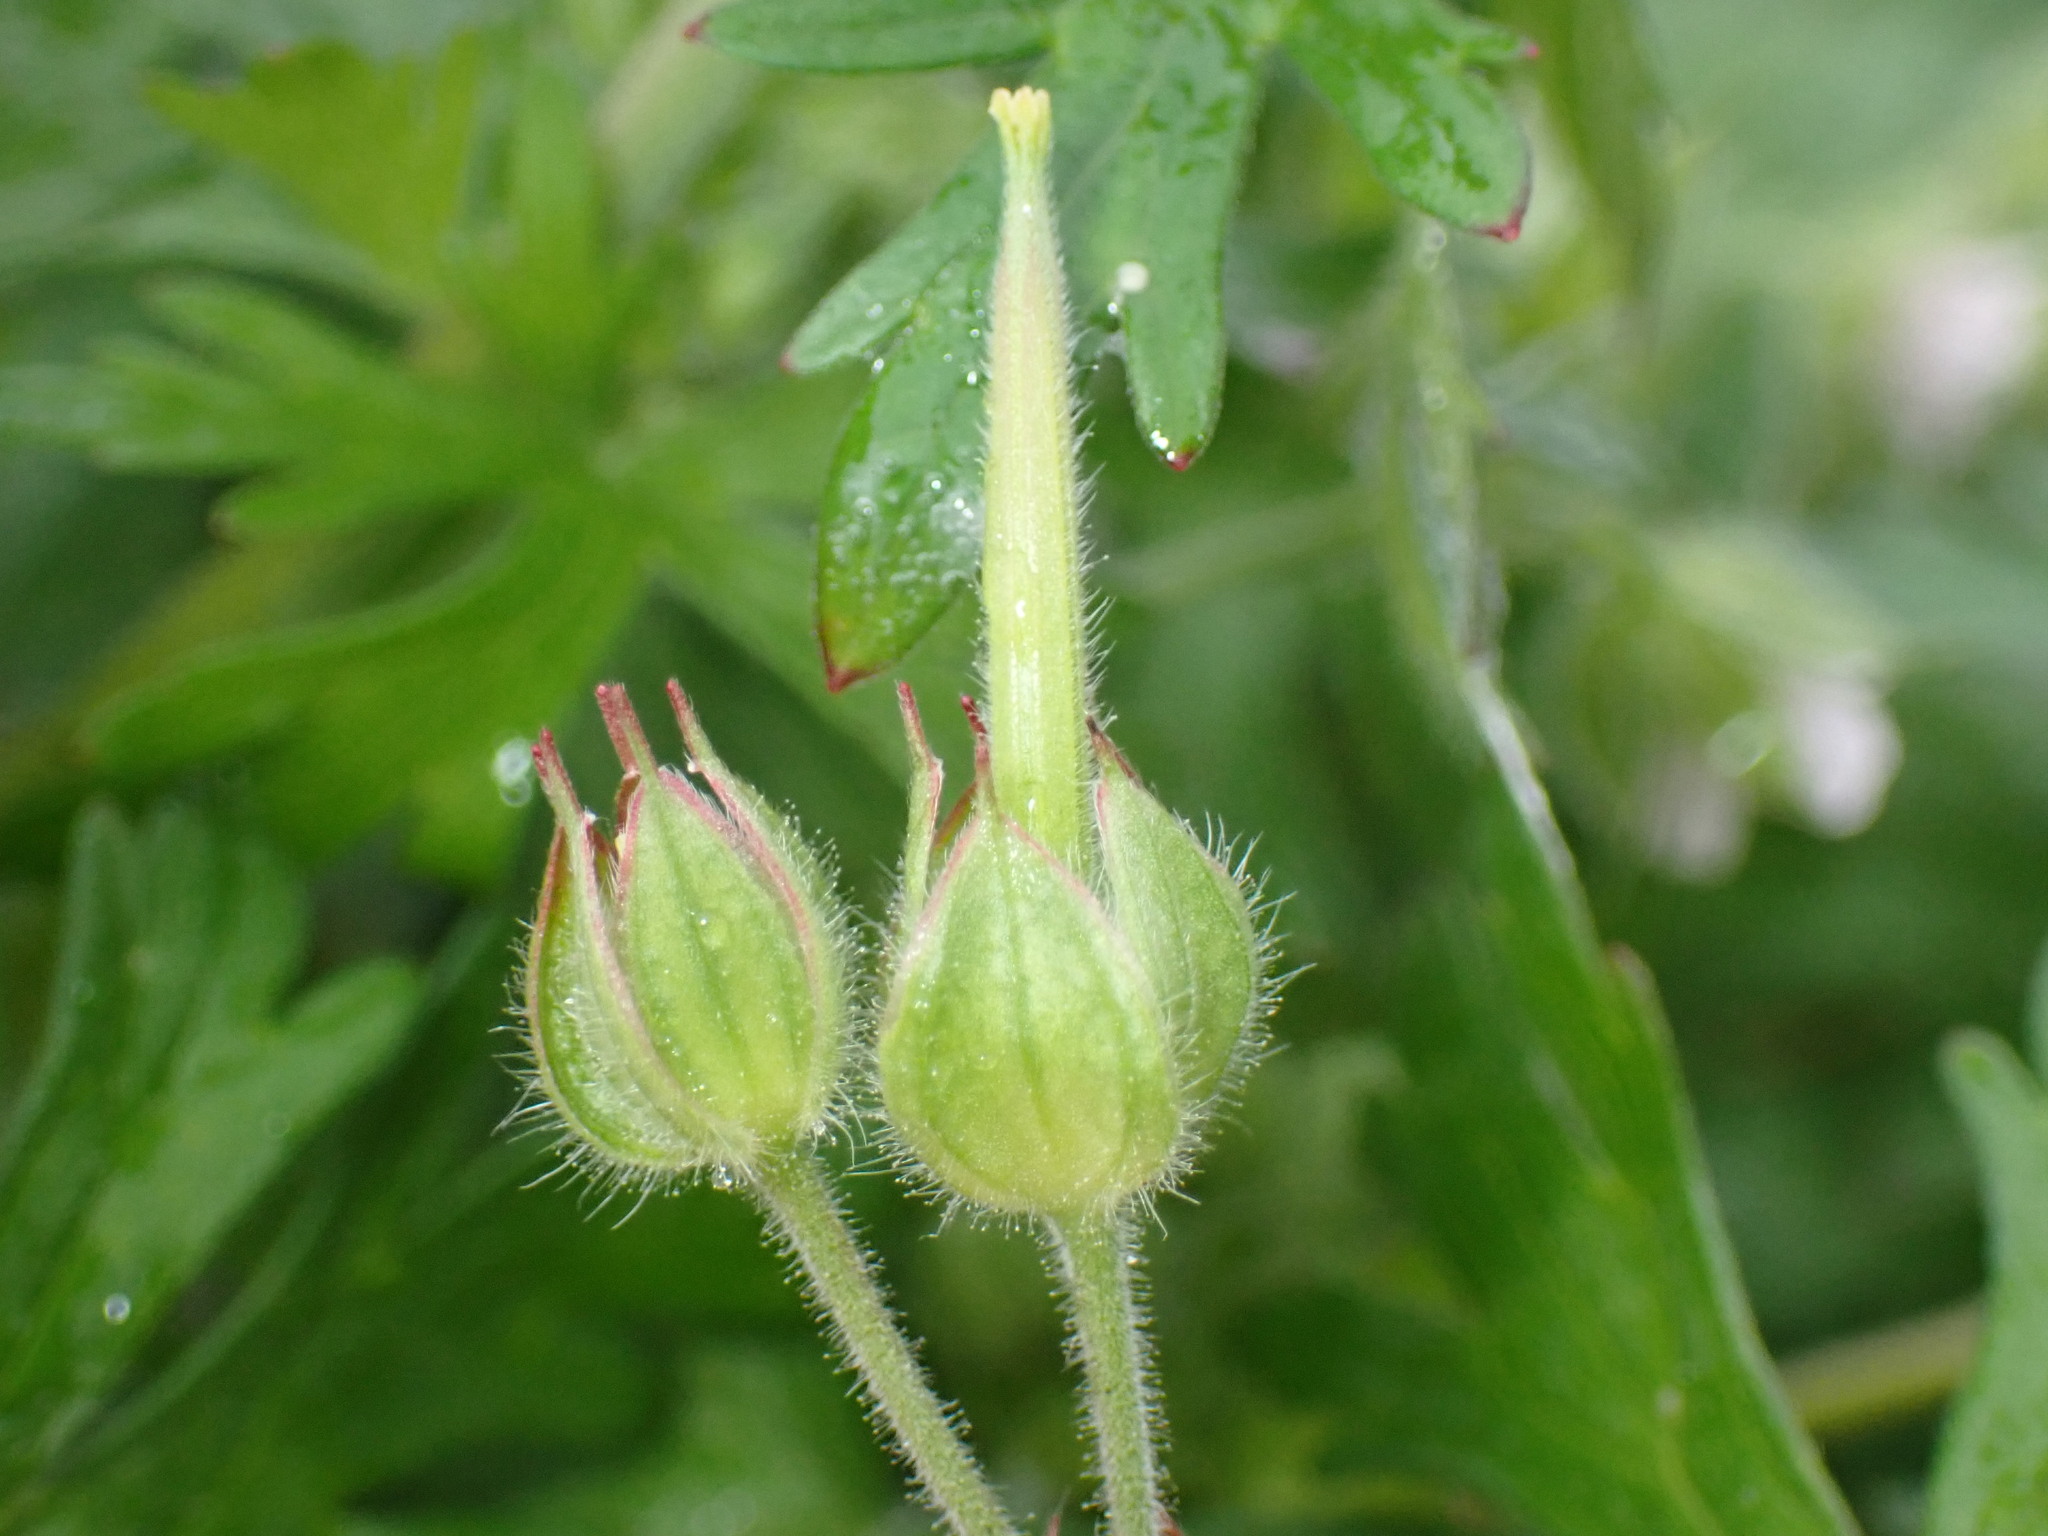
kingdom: Plantae
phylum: Tracheophyta
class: Magnoliopsida
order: Geraniales
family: Geraniaceae
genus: Geranium
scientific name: Geranium carolinianum
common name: Carolina crane's-bill
